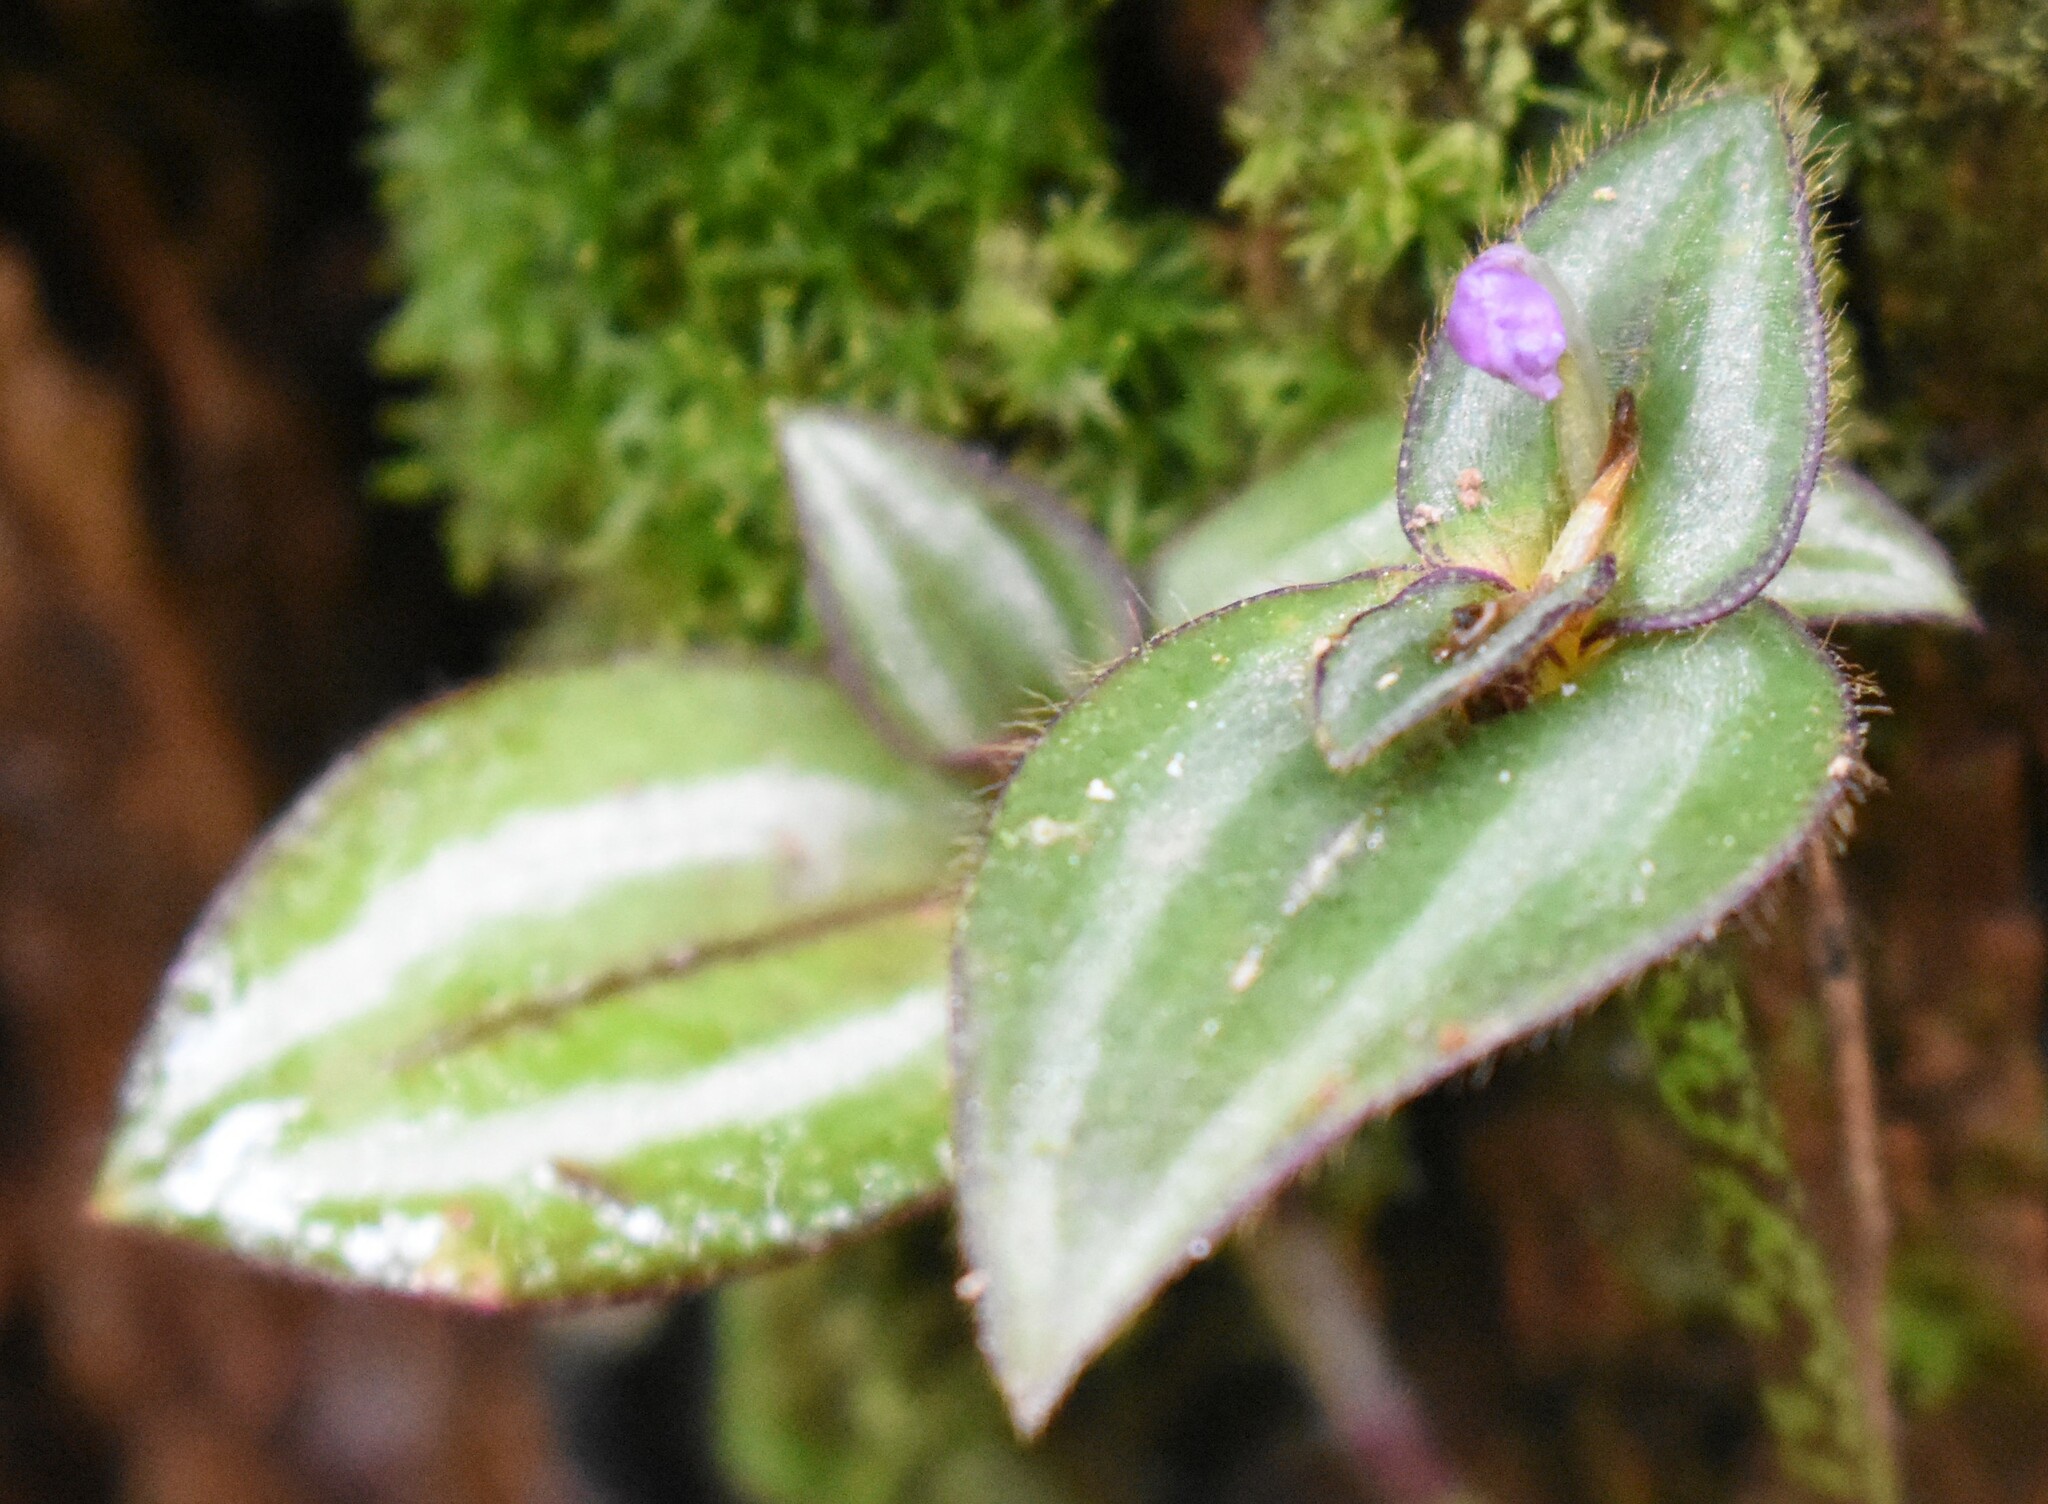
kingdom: Plantae
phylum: Tracheophyta
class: Liliopsida
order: Commelinales
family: Commelinaceae
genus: Tradescantia
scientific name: Tradescantia zebrina
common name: Inchplant
